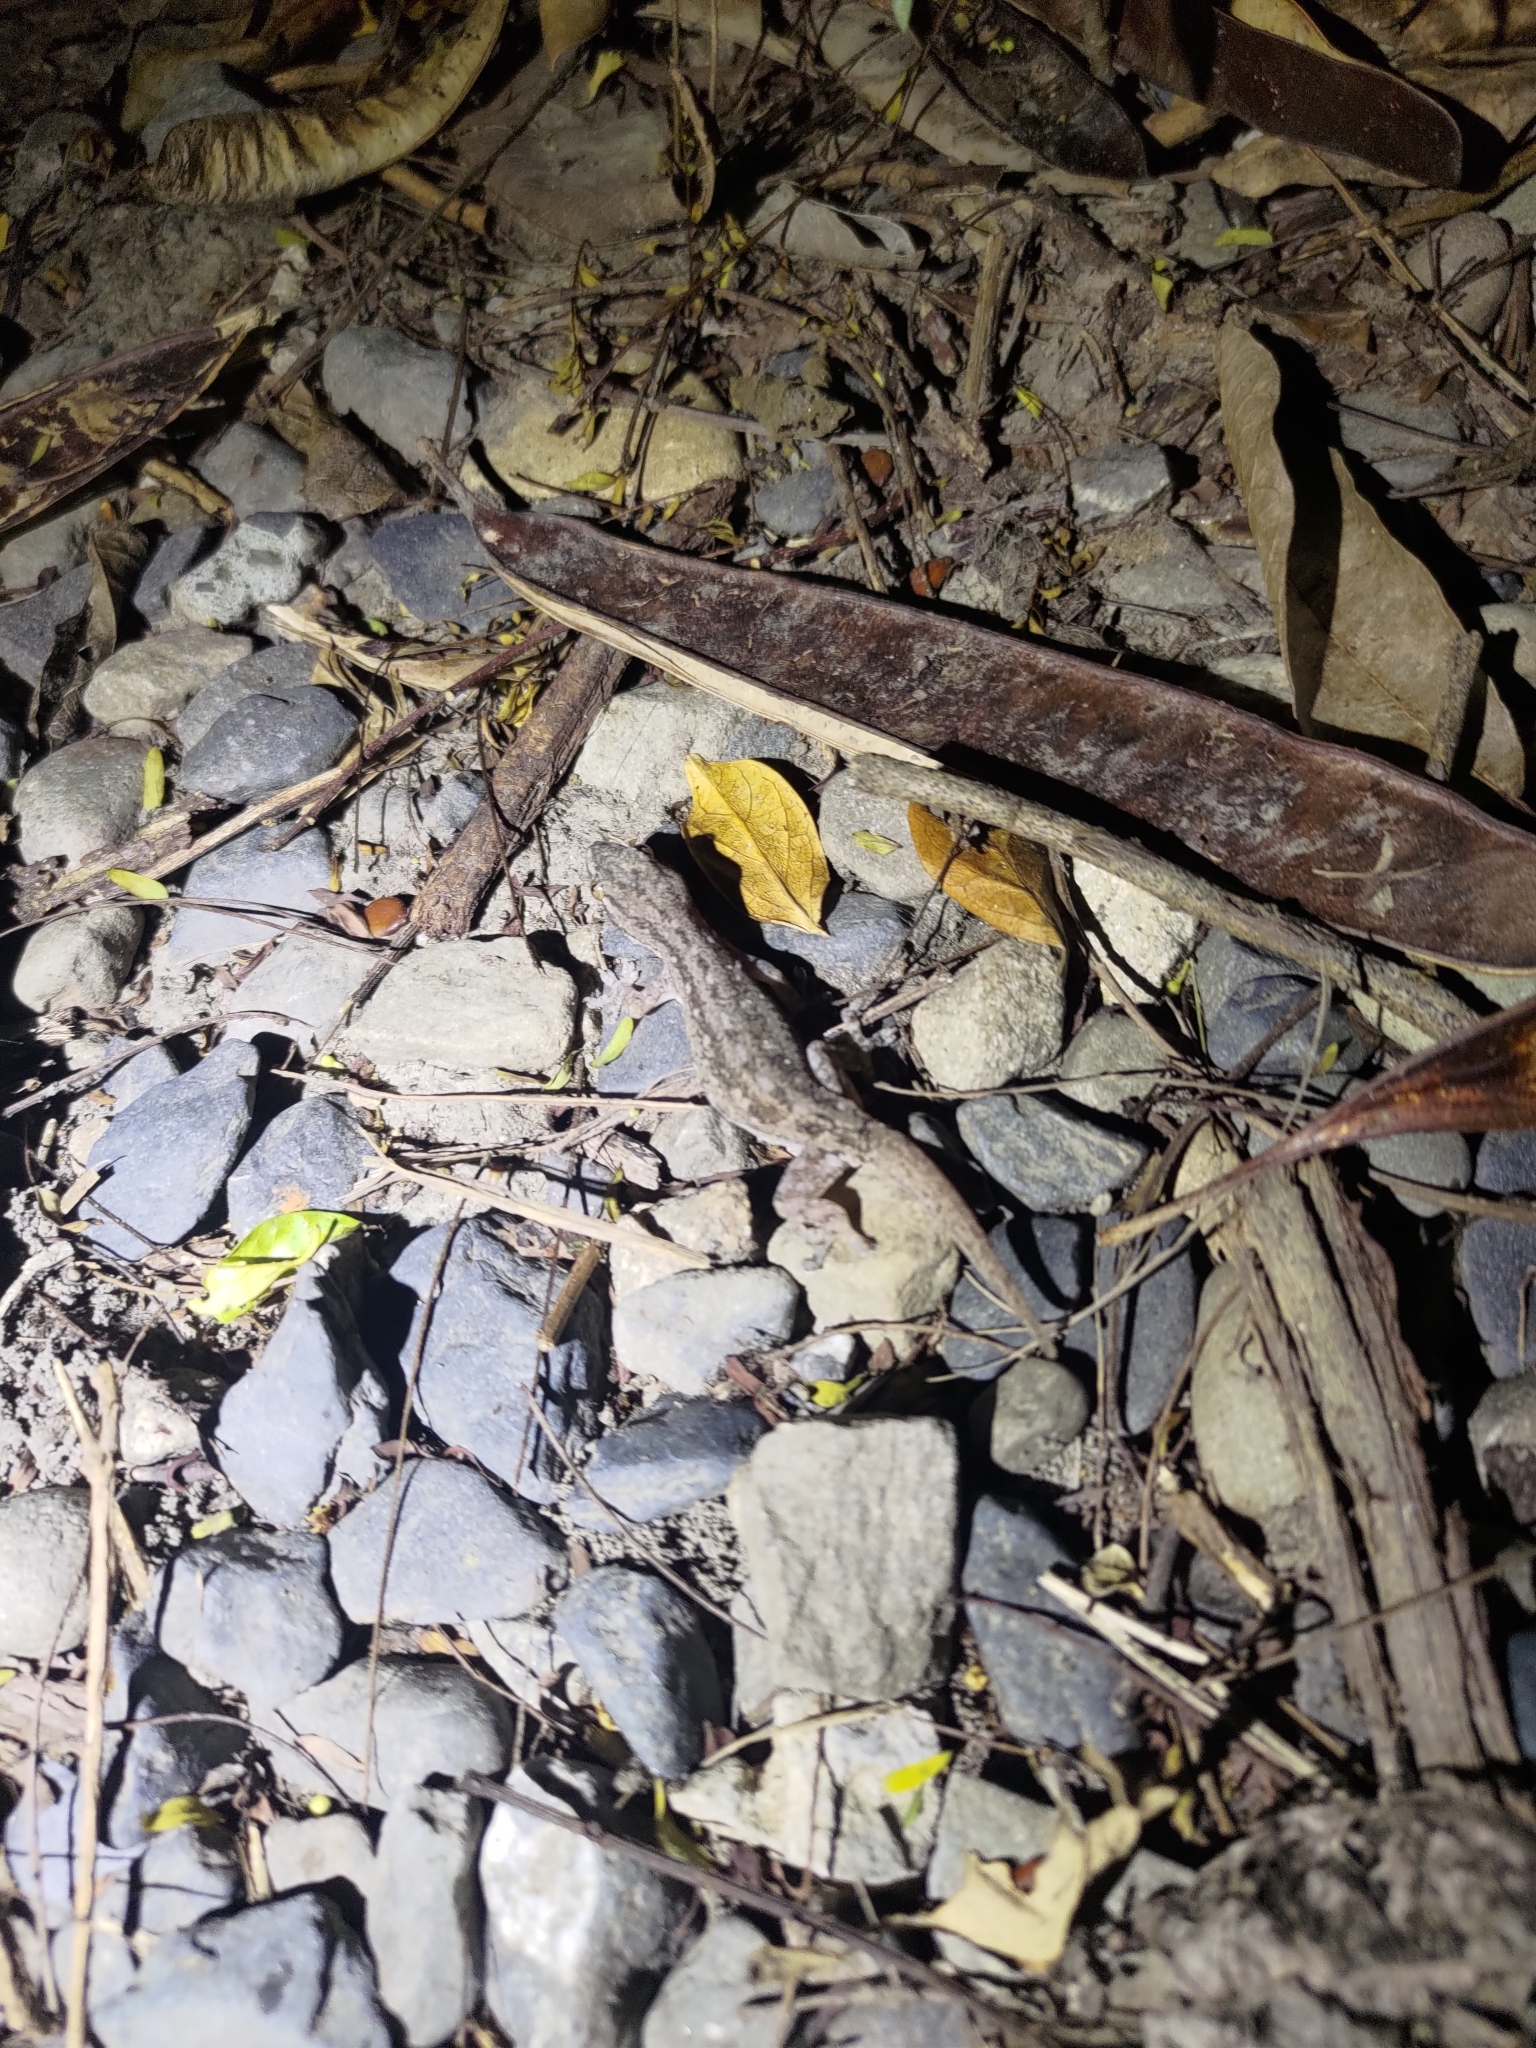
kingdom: Animalia
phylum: Chordata
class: Squamata
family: Gekkonidae
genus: Hemidactylus
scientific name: Hemidactylus frenatus
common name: Common house gecko
